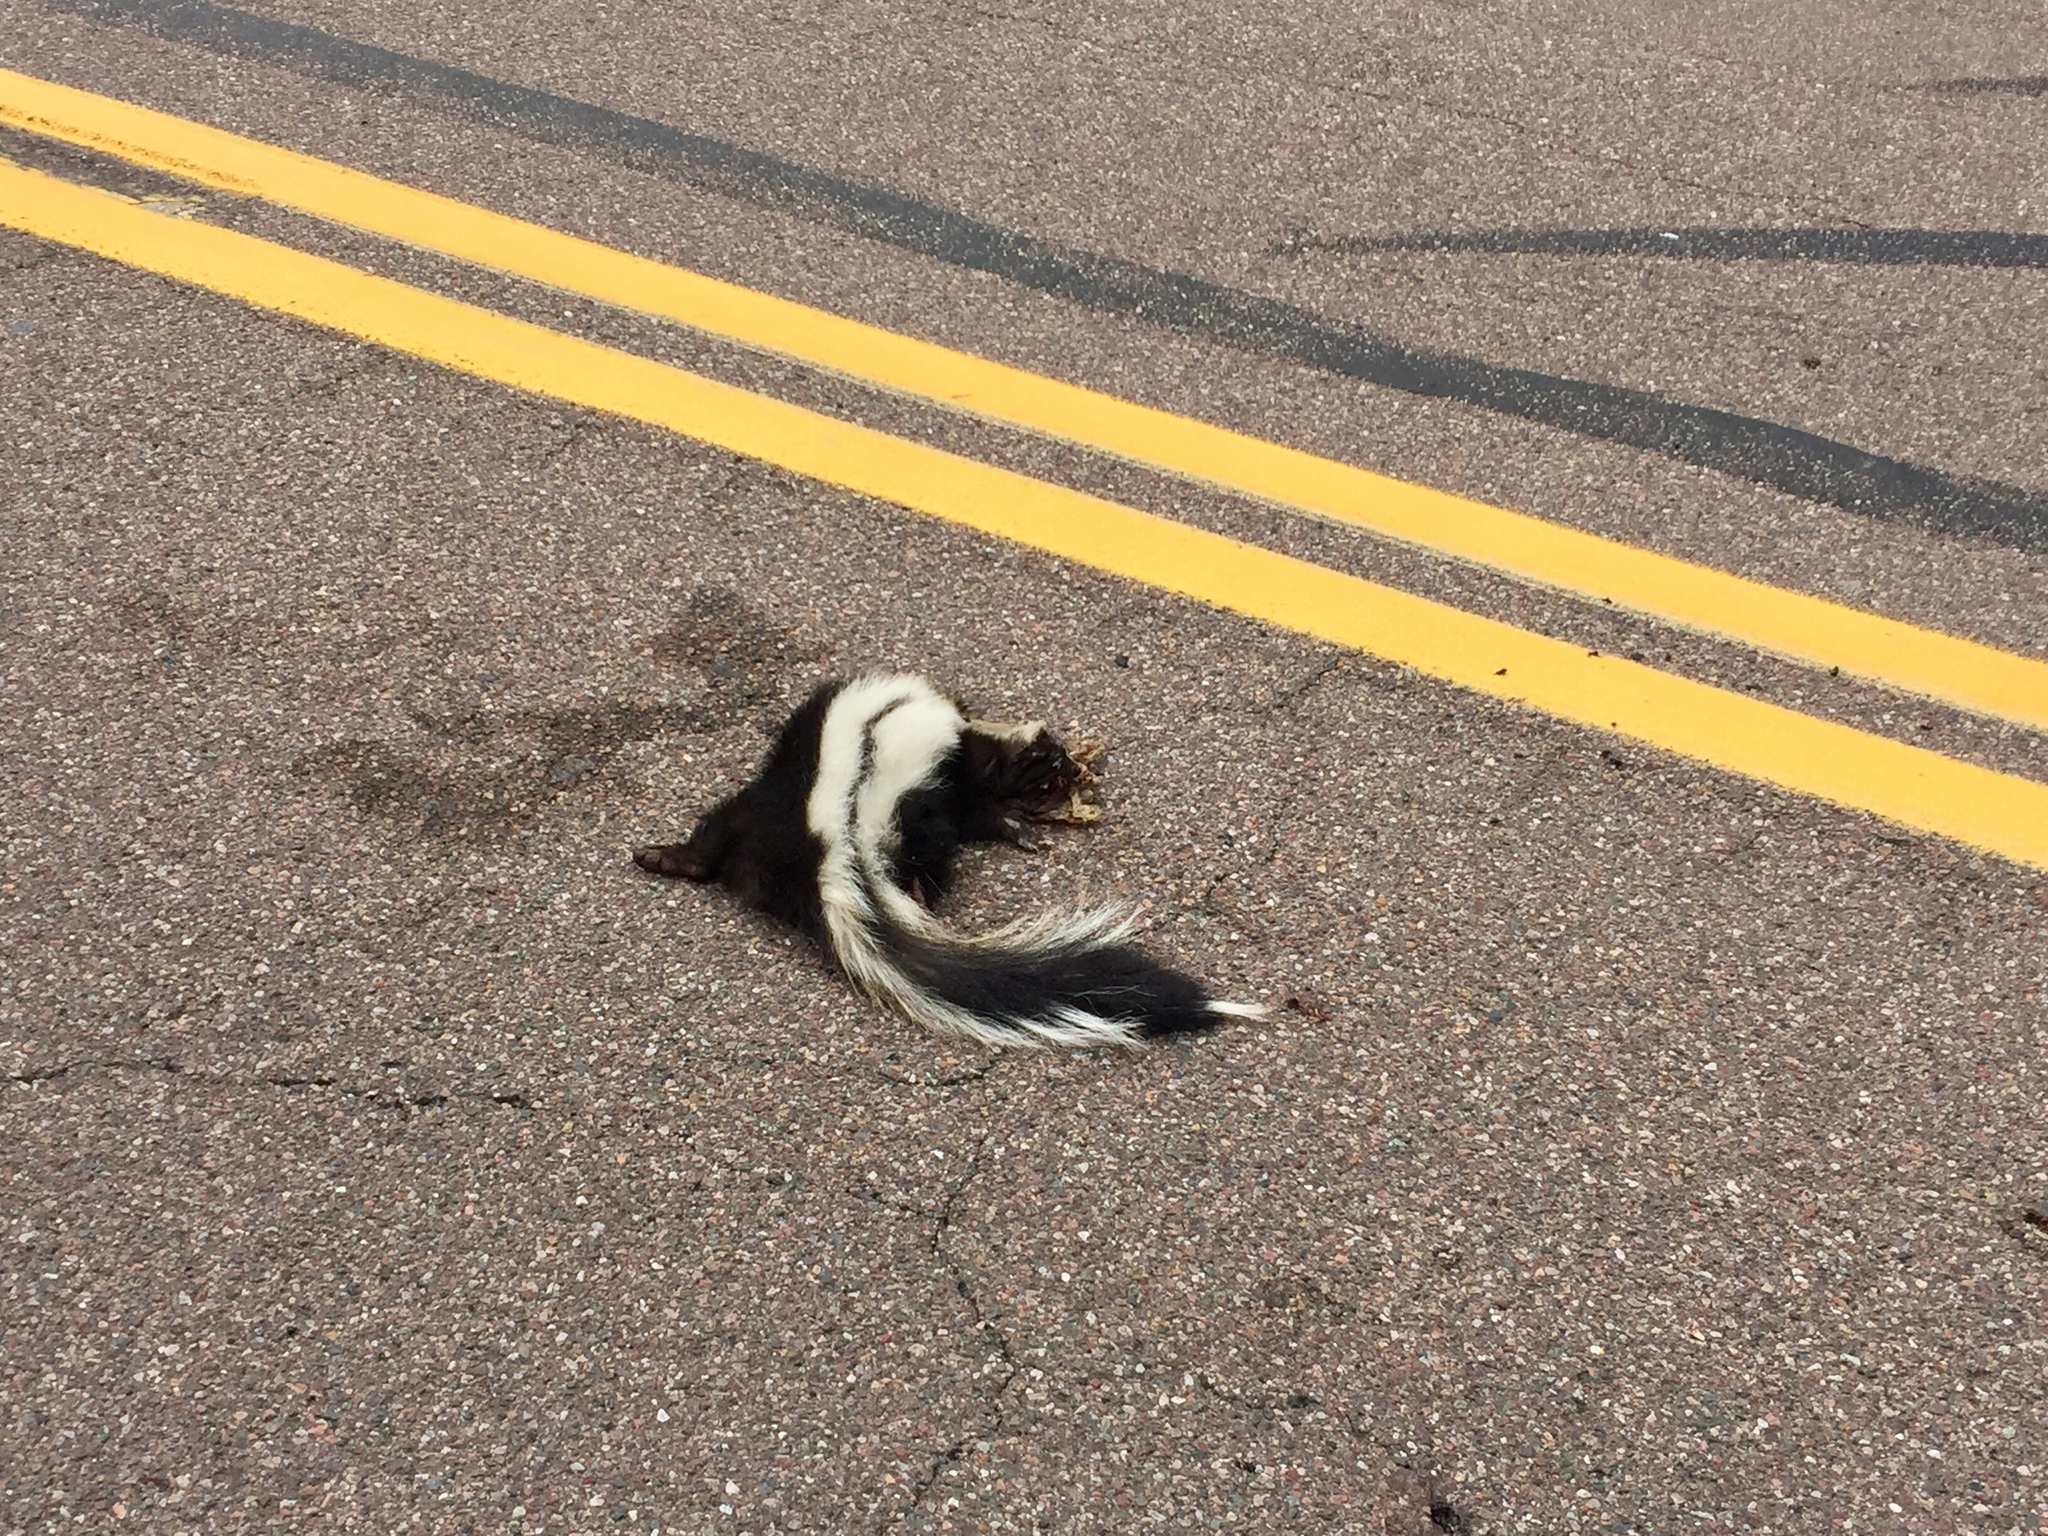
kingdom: Animalia
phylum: Chordata
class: Mammalia
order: Carnivora
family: Mephitidae
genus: Mephitis
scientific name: Mephitis mephitis
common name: Striped skunk
